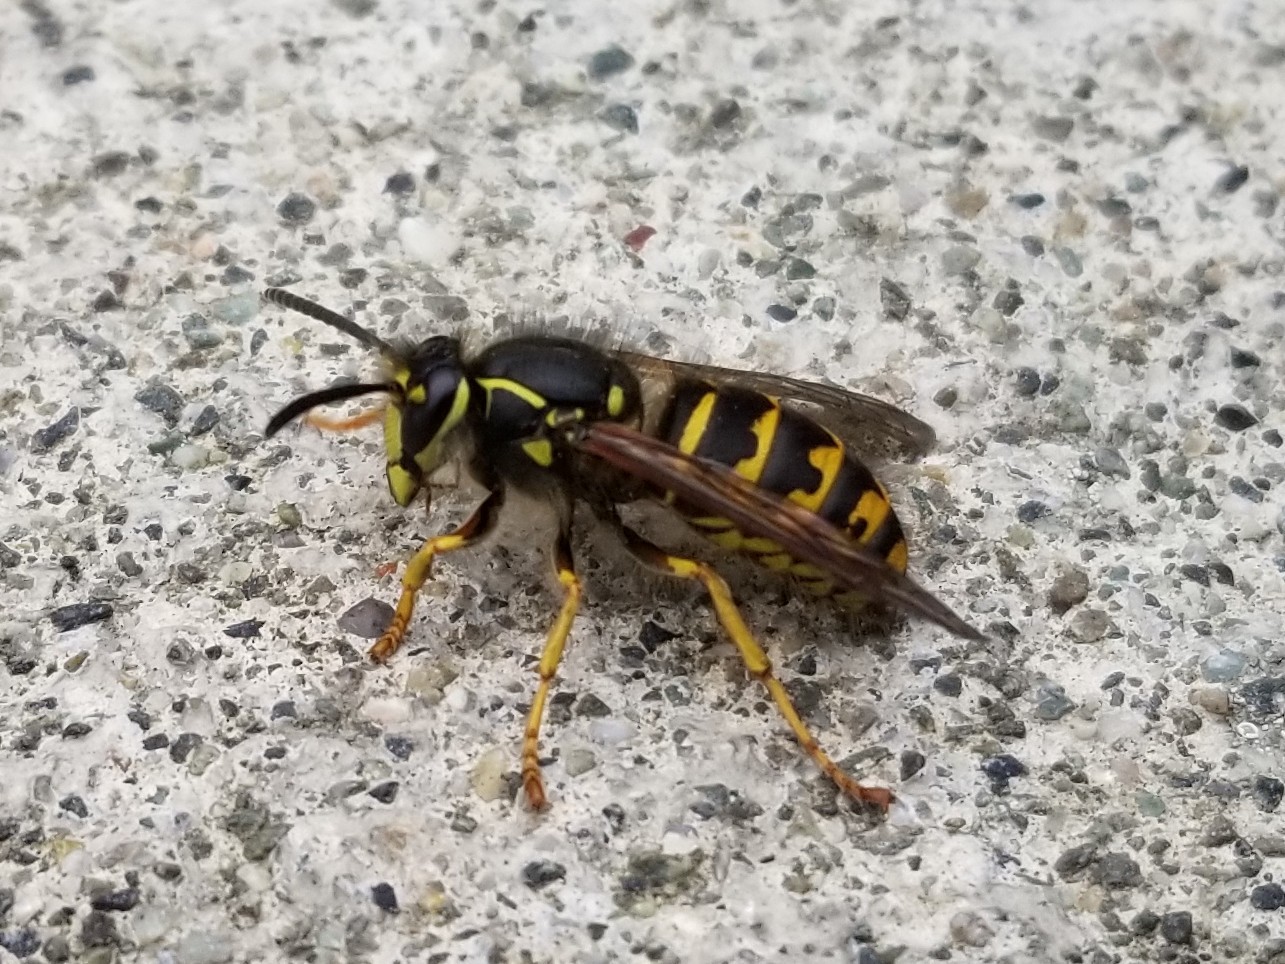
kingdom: Animalia
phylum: Arthropoda
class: Insecta
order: Hymenoptera
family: Vespidae
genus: Dolichovespula
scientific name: Dolichovespula arenaria
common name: Aerial yellowjacket
